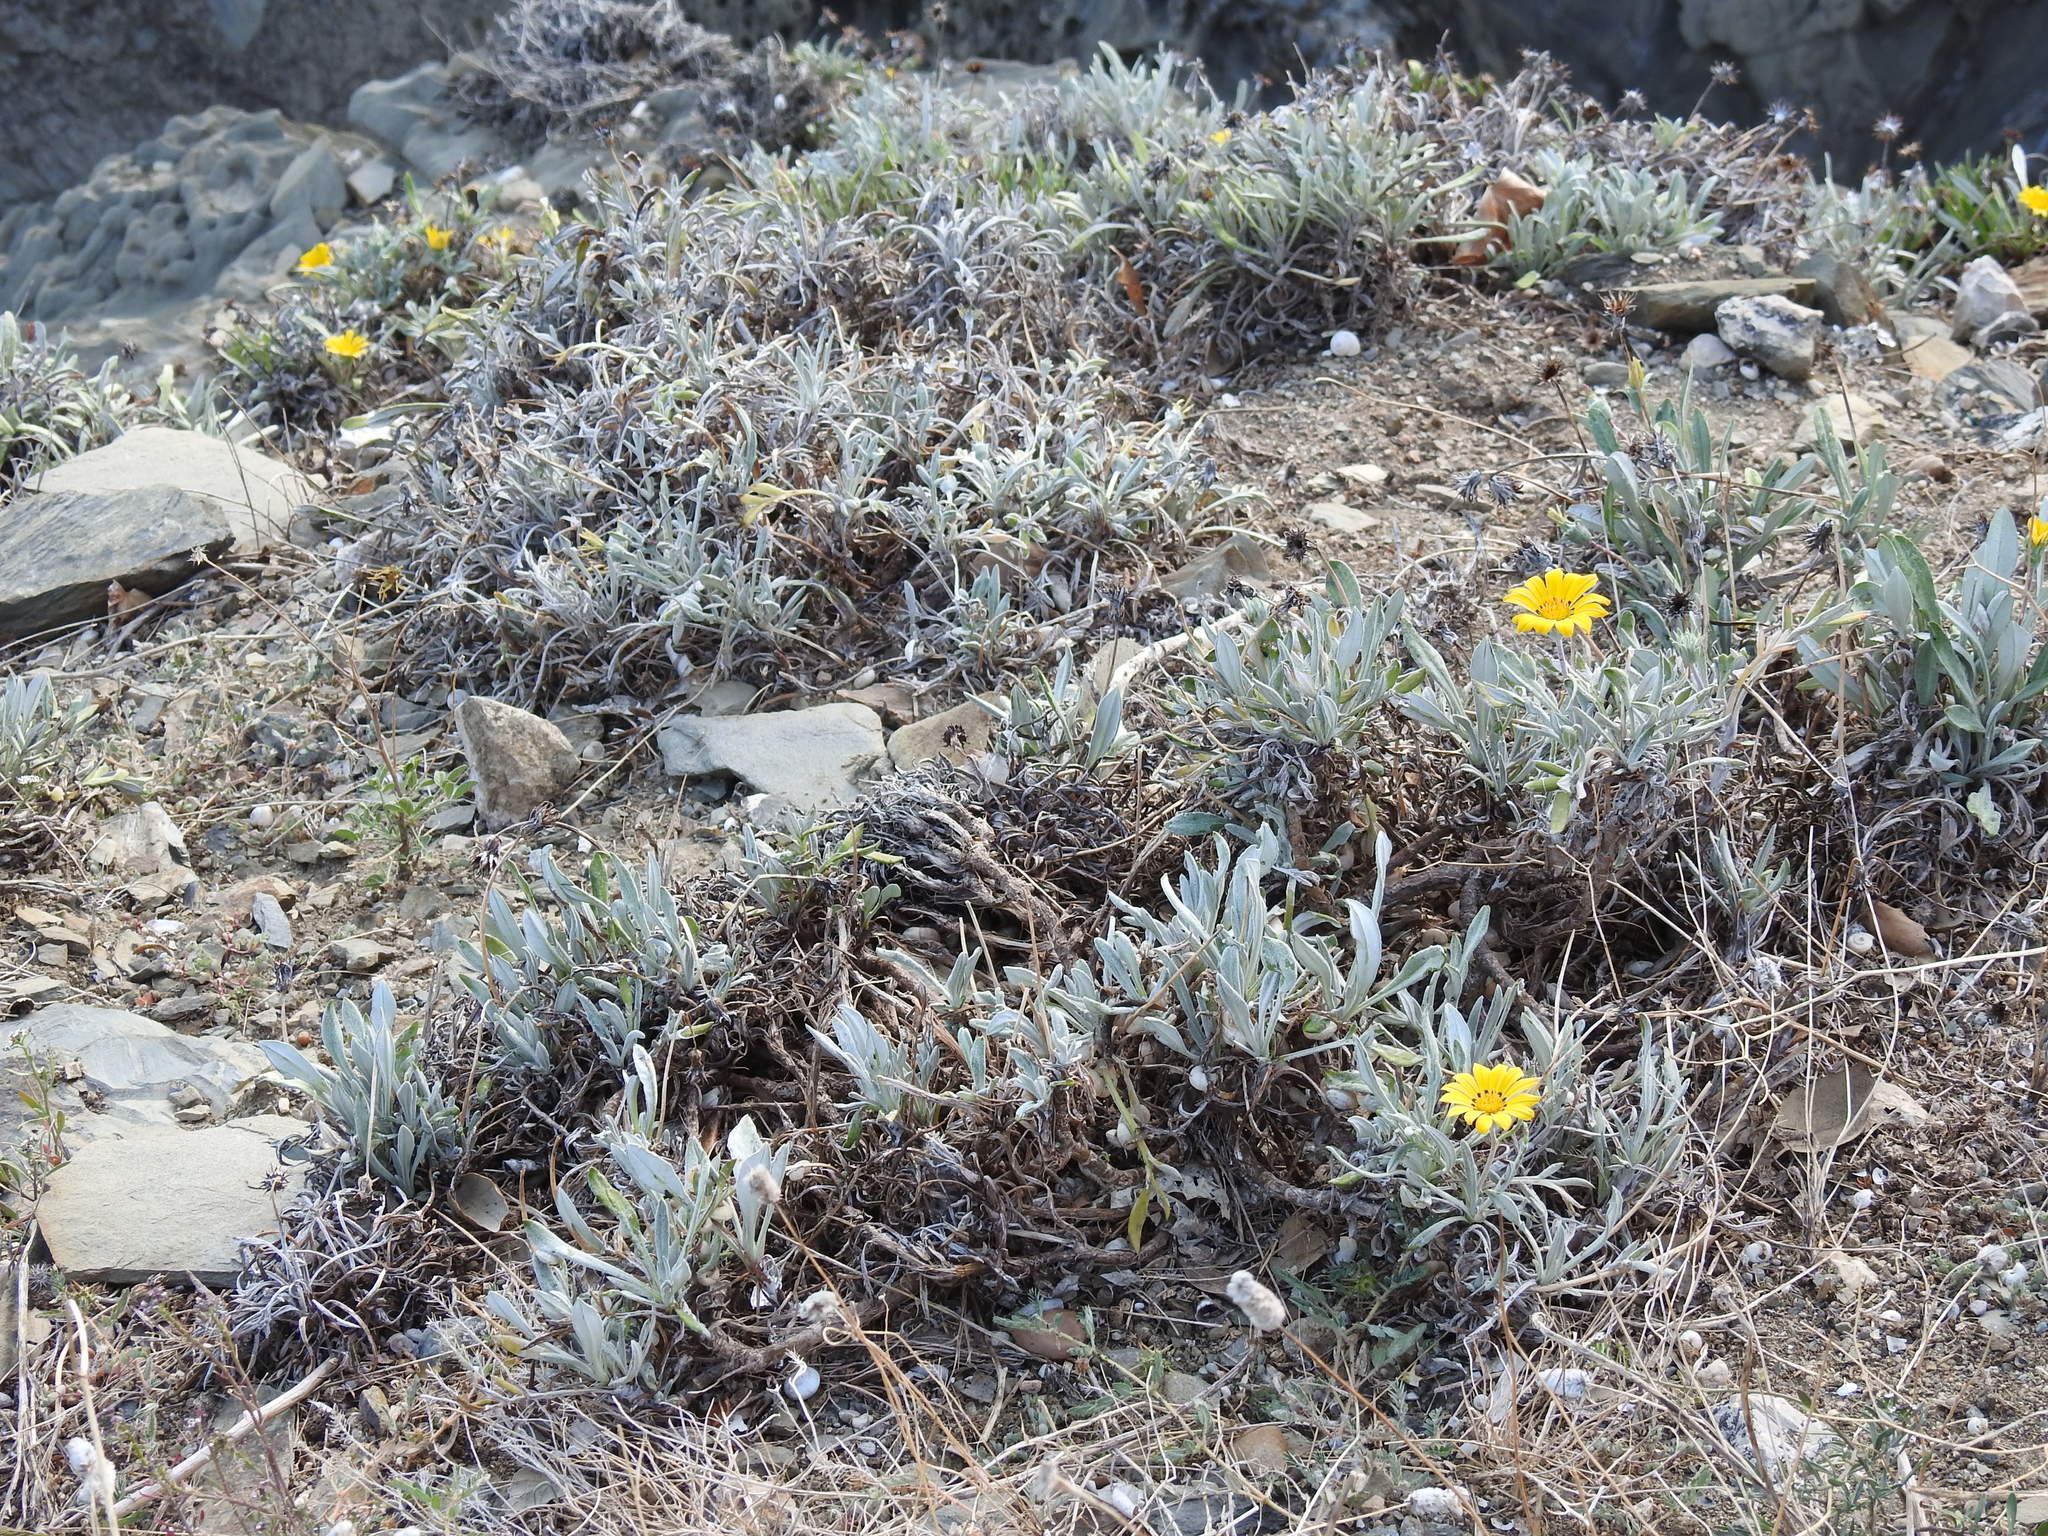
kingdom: Plantae
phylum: Tracheophyta
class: Magnoliopsida
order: Asterales
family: Asteraceae
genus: Gazania
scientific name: Gazania rigens
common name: Treasureflower
